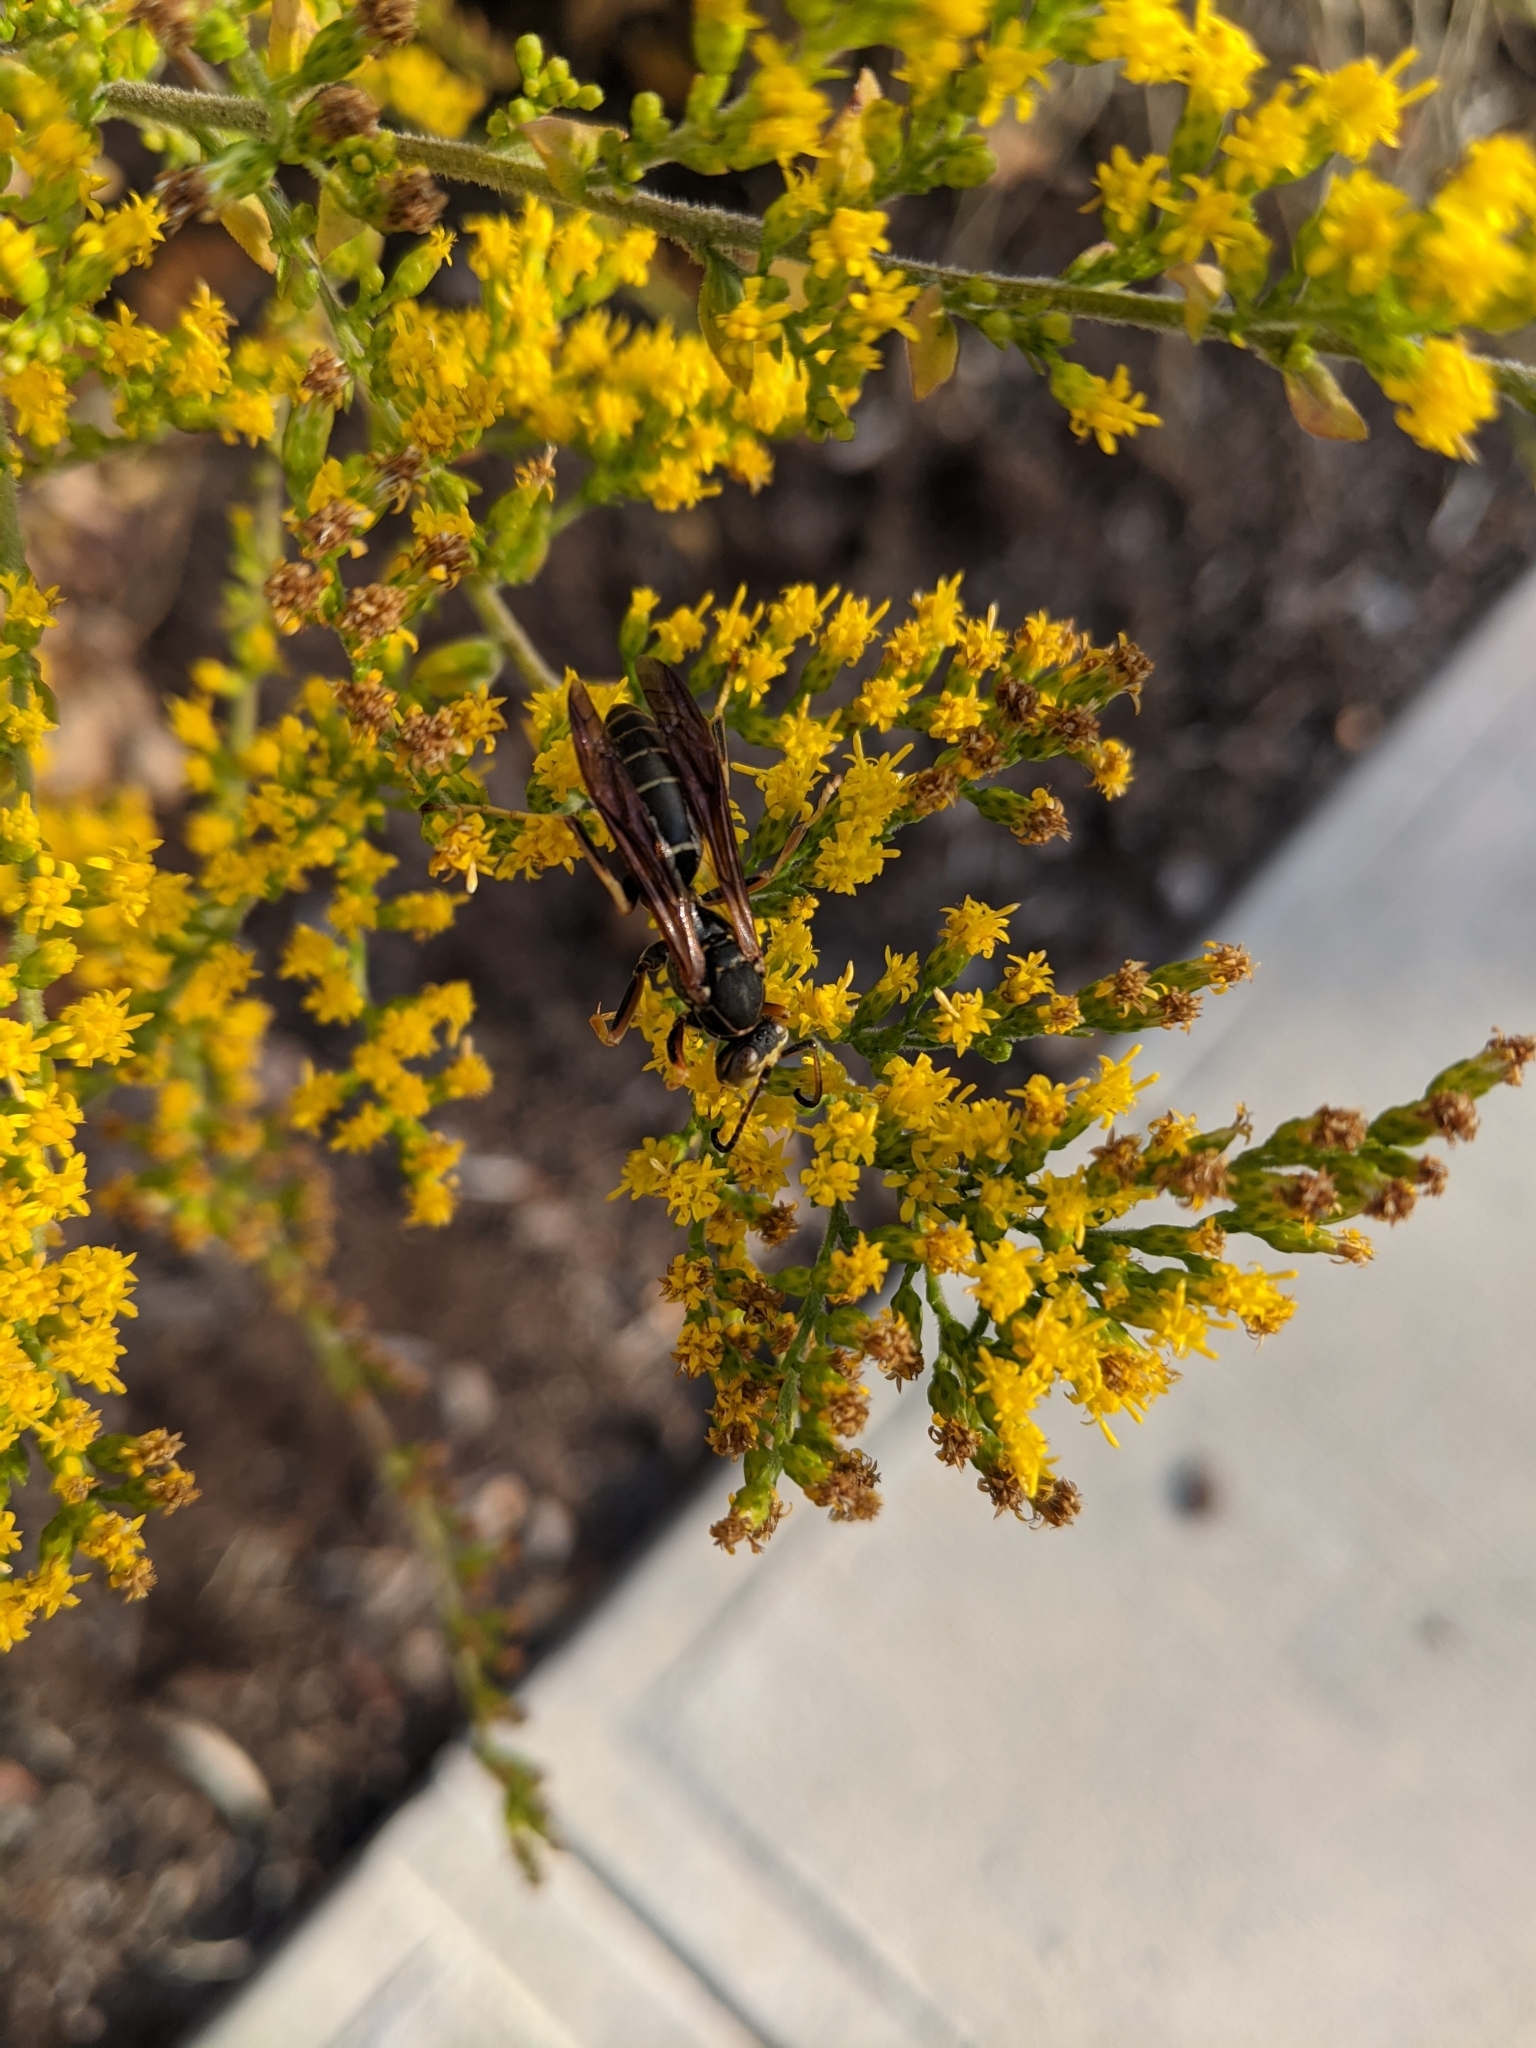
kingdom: Animalia
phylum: Arthropoda
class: Insecta
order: Hymenoptera
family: Eumenidae
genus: Polistes
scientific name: Polistes fuscatus
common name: Dark paper wasp
